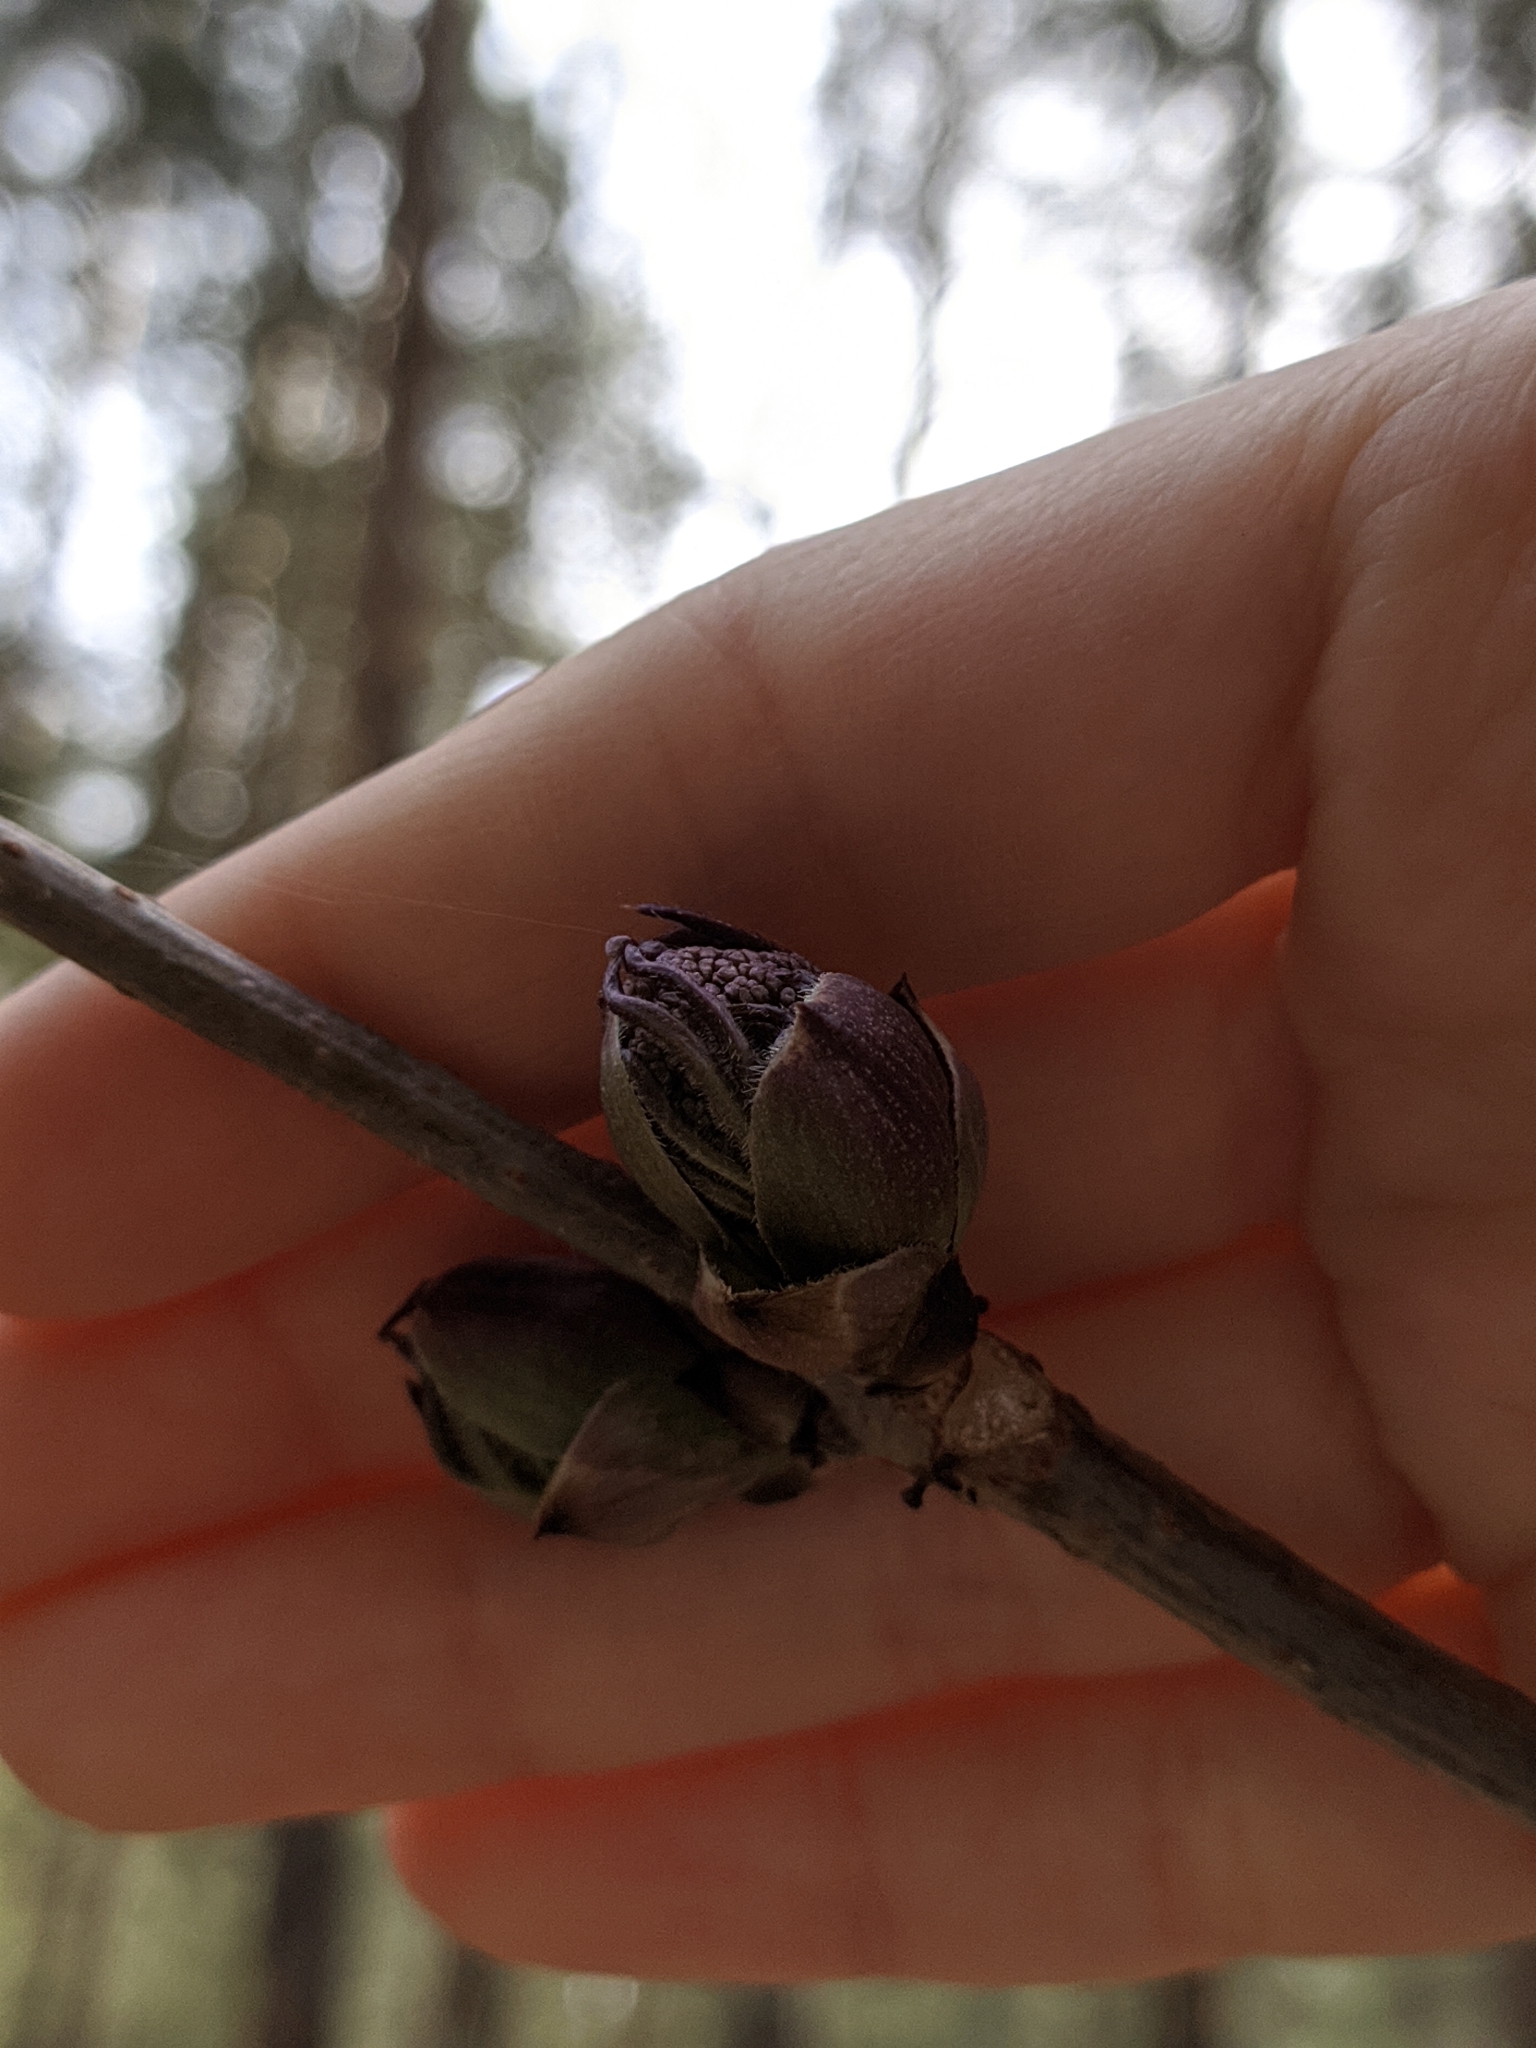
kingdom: Plantae
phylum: Tracheophyta
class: Magnoliopsida
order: Dipsacales
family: Viburnaceae
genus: Sambucus
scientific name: Sambucus racemosa
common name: Red-berried elder
